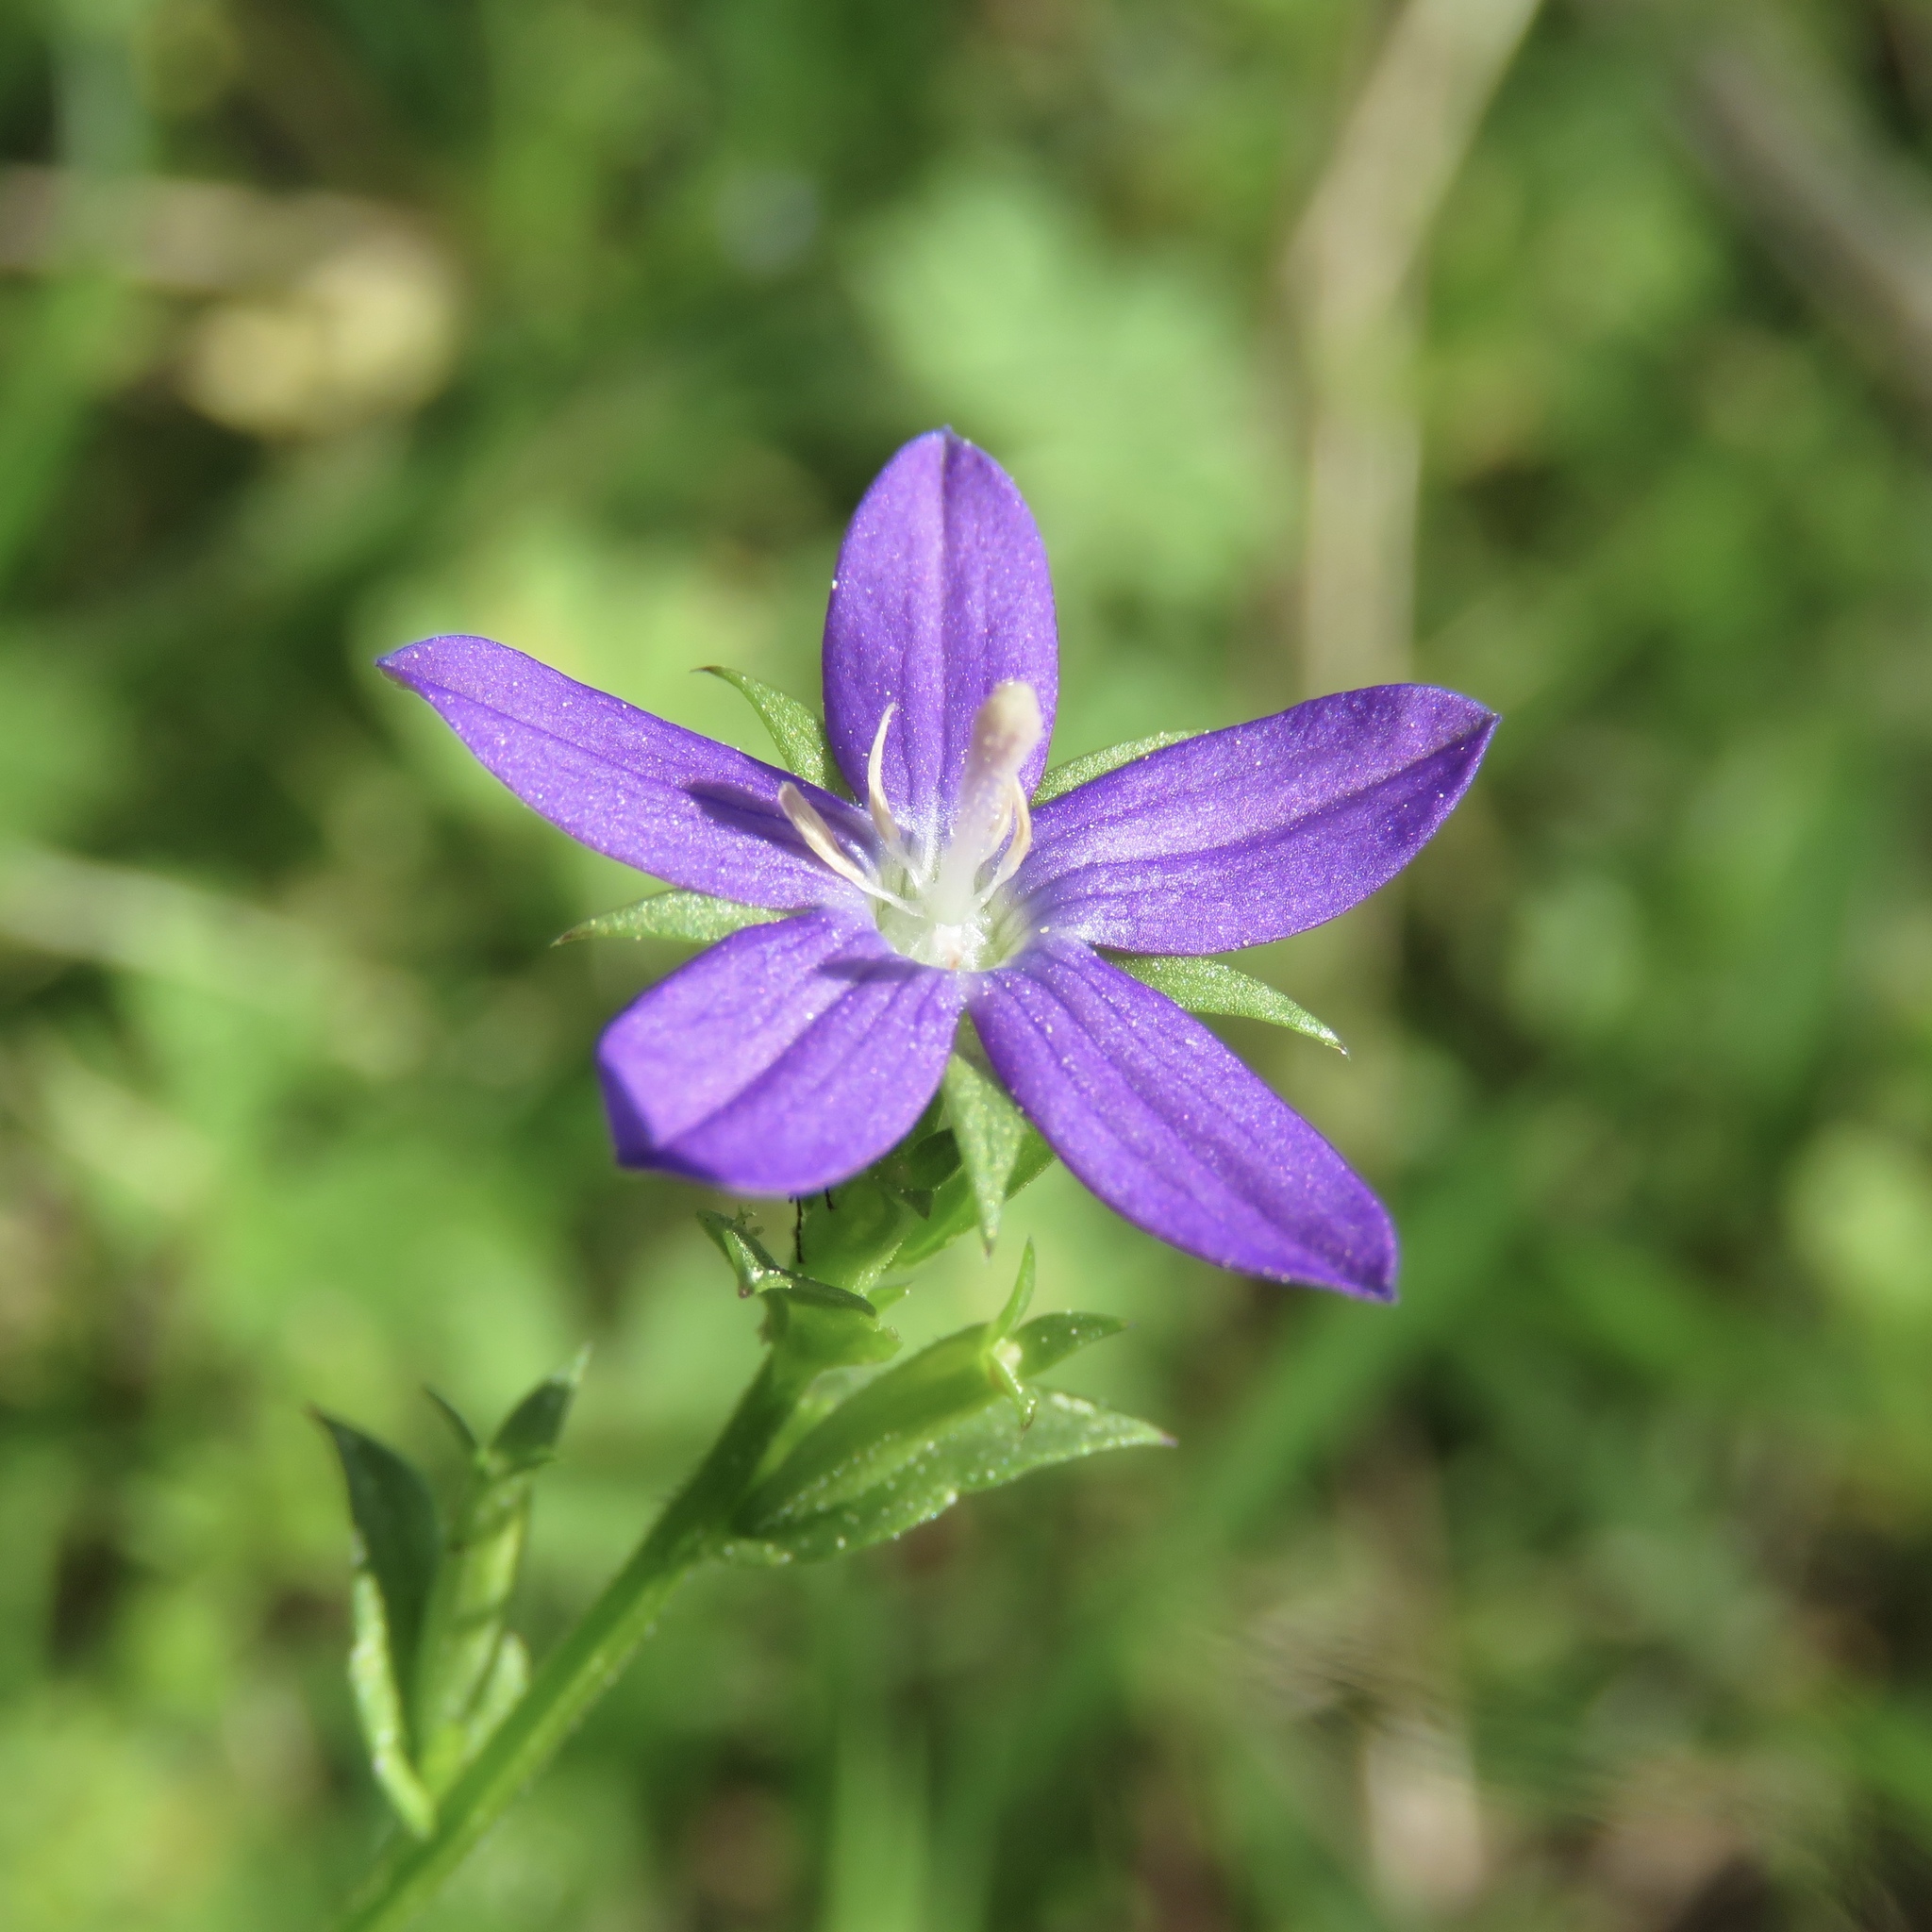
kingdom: Plantae
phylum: Tracheophyta
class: Magnoliopsida
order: Asterales
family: Campanulaceae
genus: Triodanis
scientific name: Triodanis perfoliata
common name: Clasping venus' looking-glass
